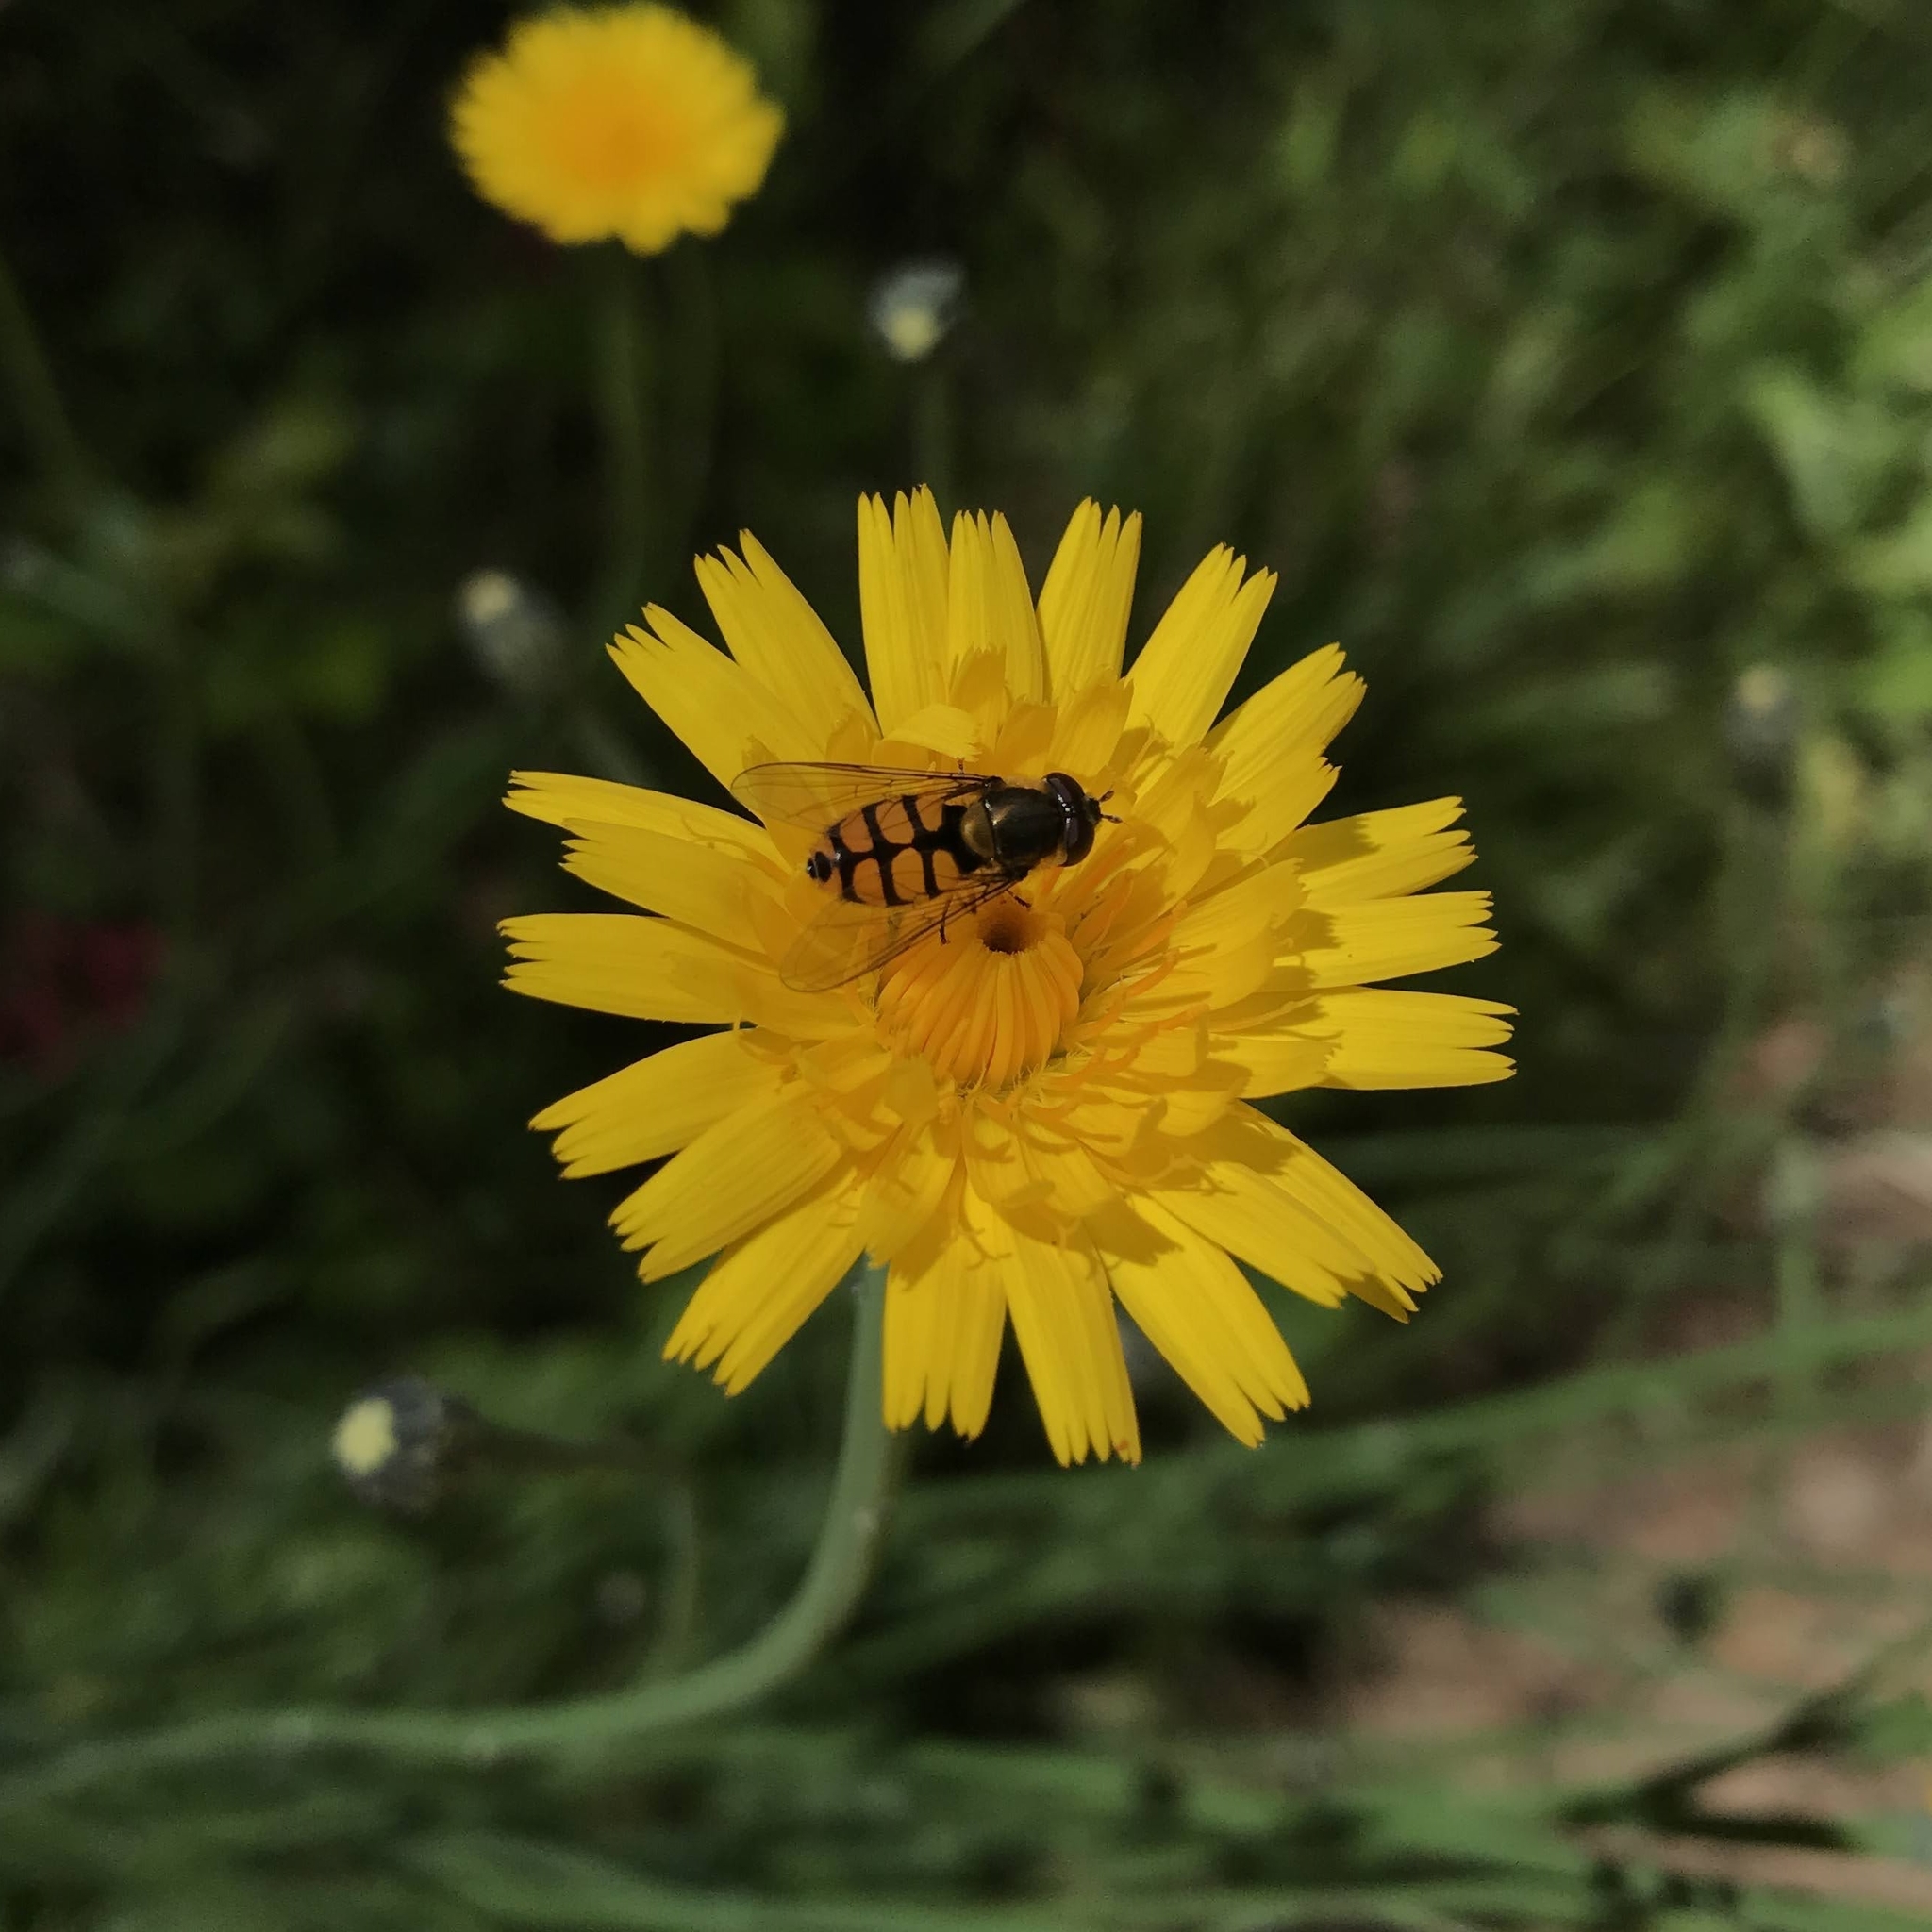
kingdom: Animalia
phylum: Arthropoda
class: Insecta
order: Diptera
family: Syrphidae
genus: Syrphus
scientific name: Syrphus octomaculatus
